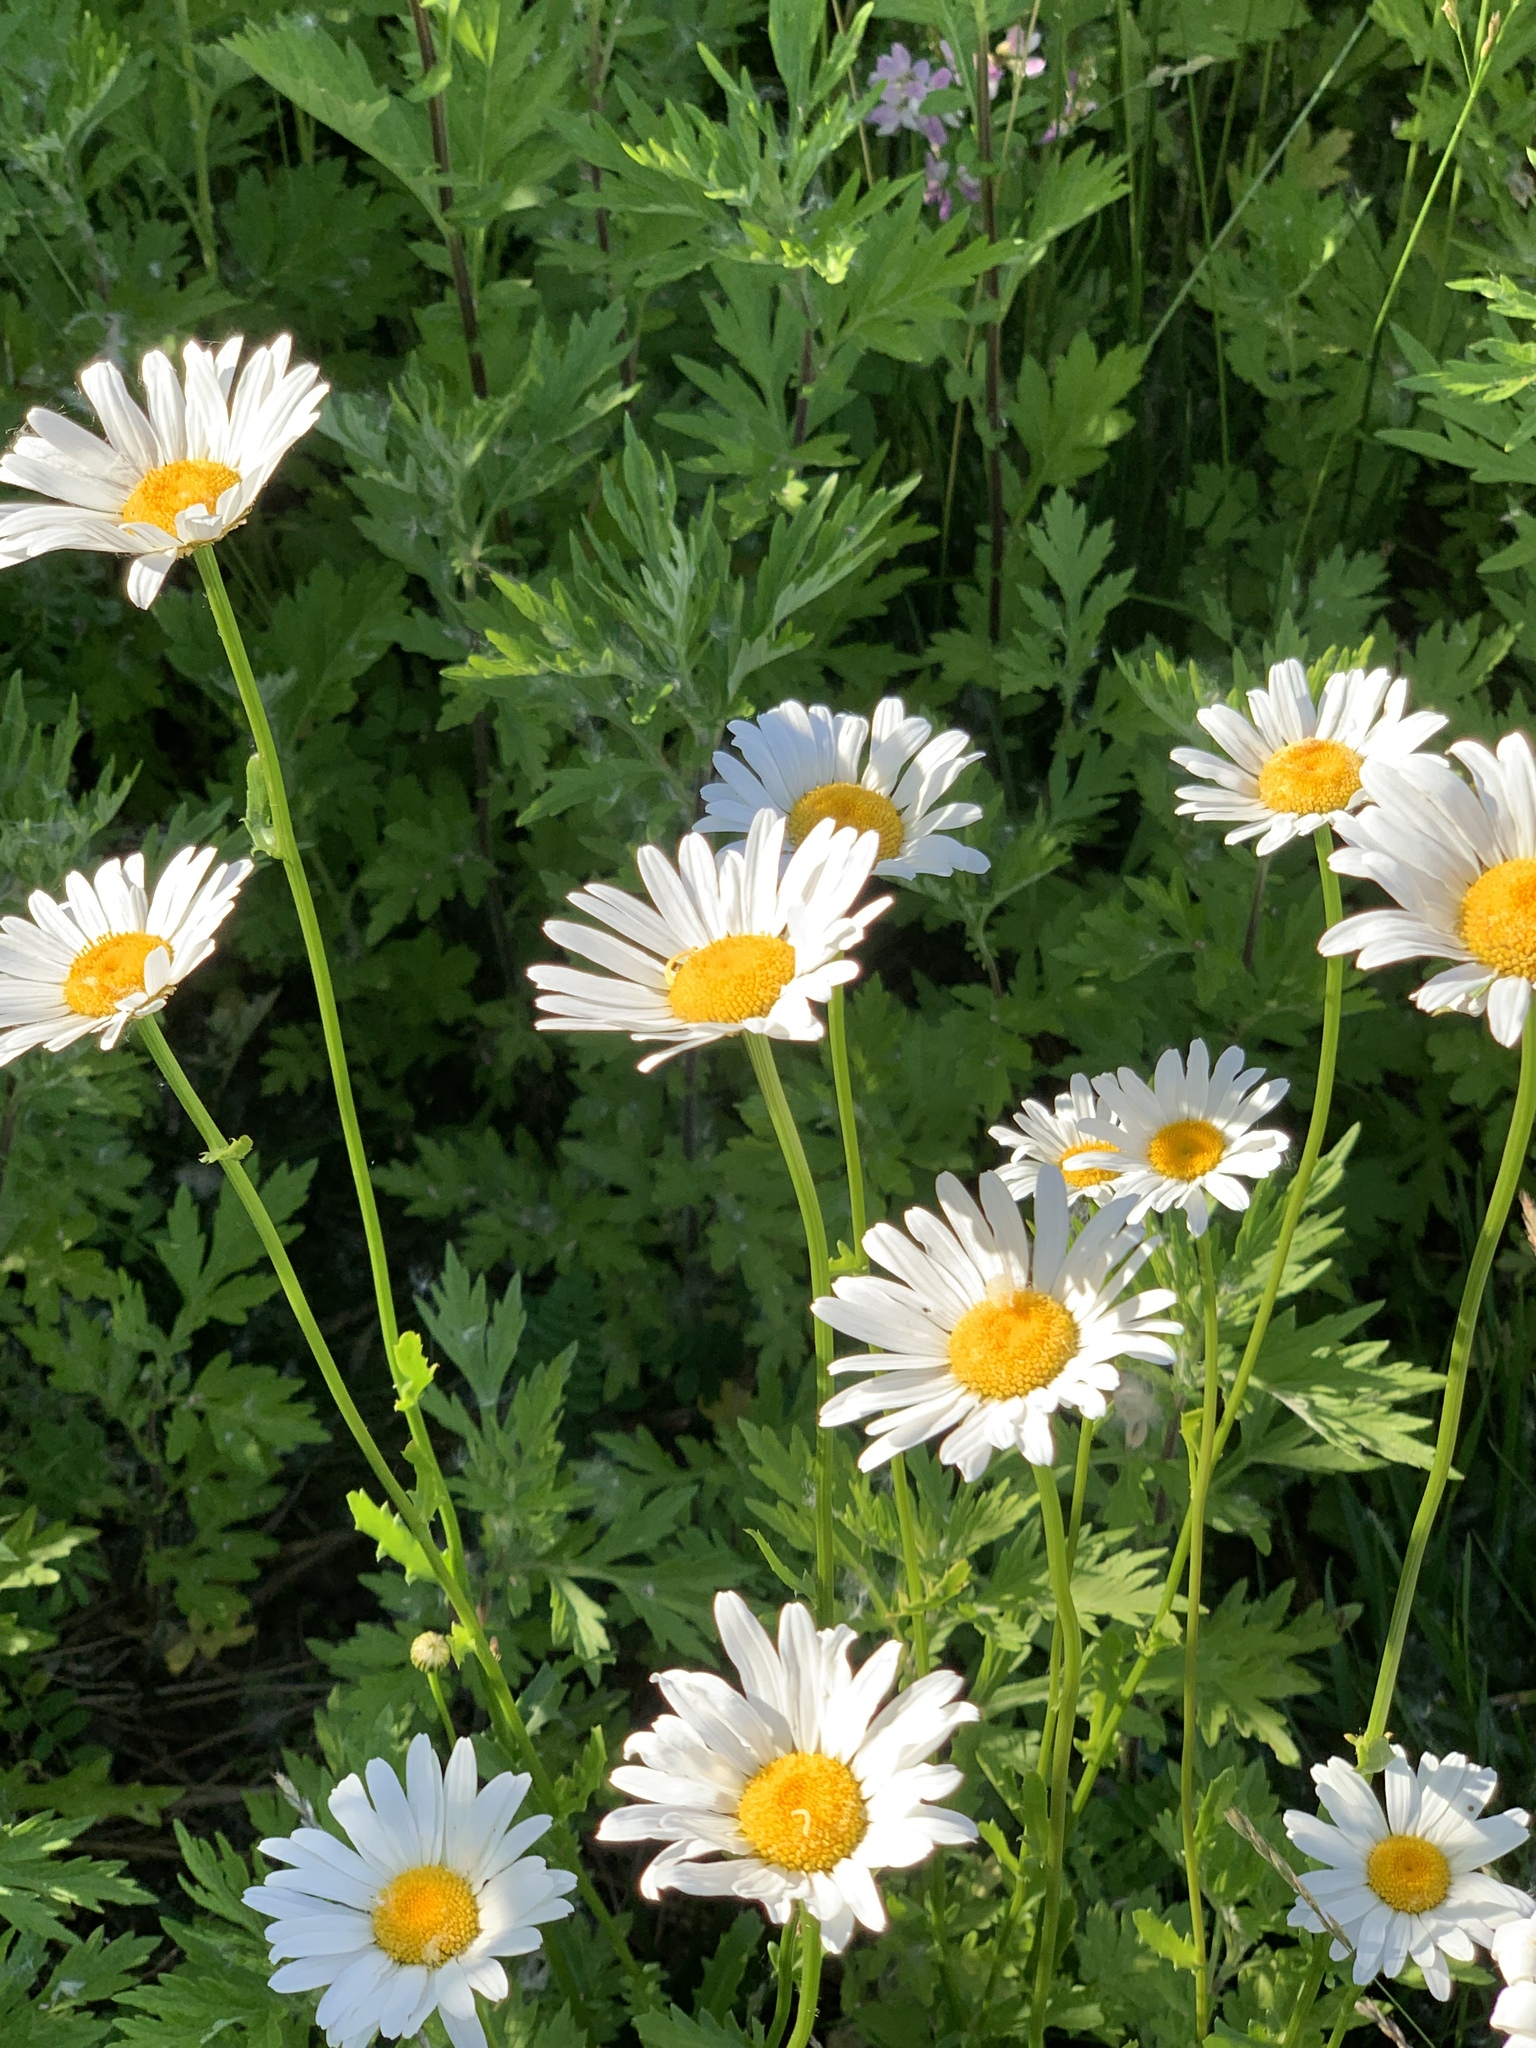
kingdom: Plantae
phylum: Tracheophyta
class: Magnoliopsida
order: Asterales
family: Asteraceae
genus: Leucanthemum
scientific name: Leucanthemum vulgare
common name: Oxeye daisy
